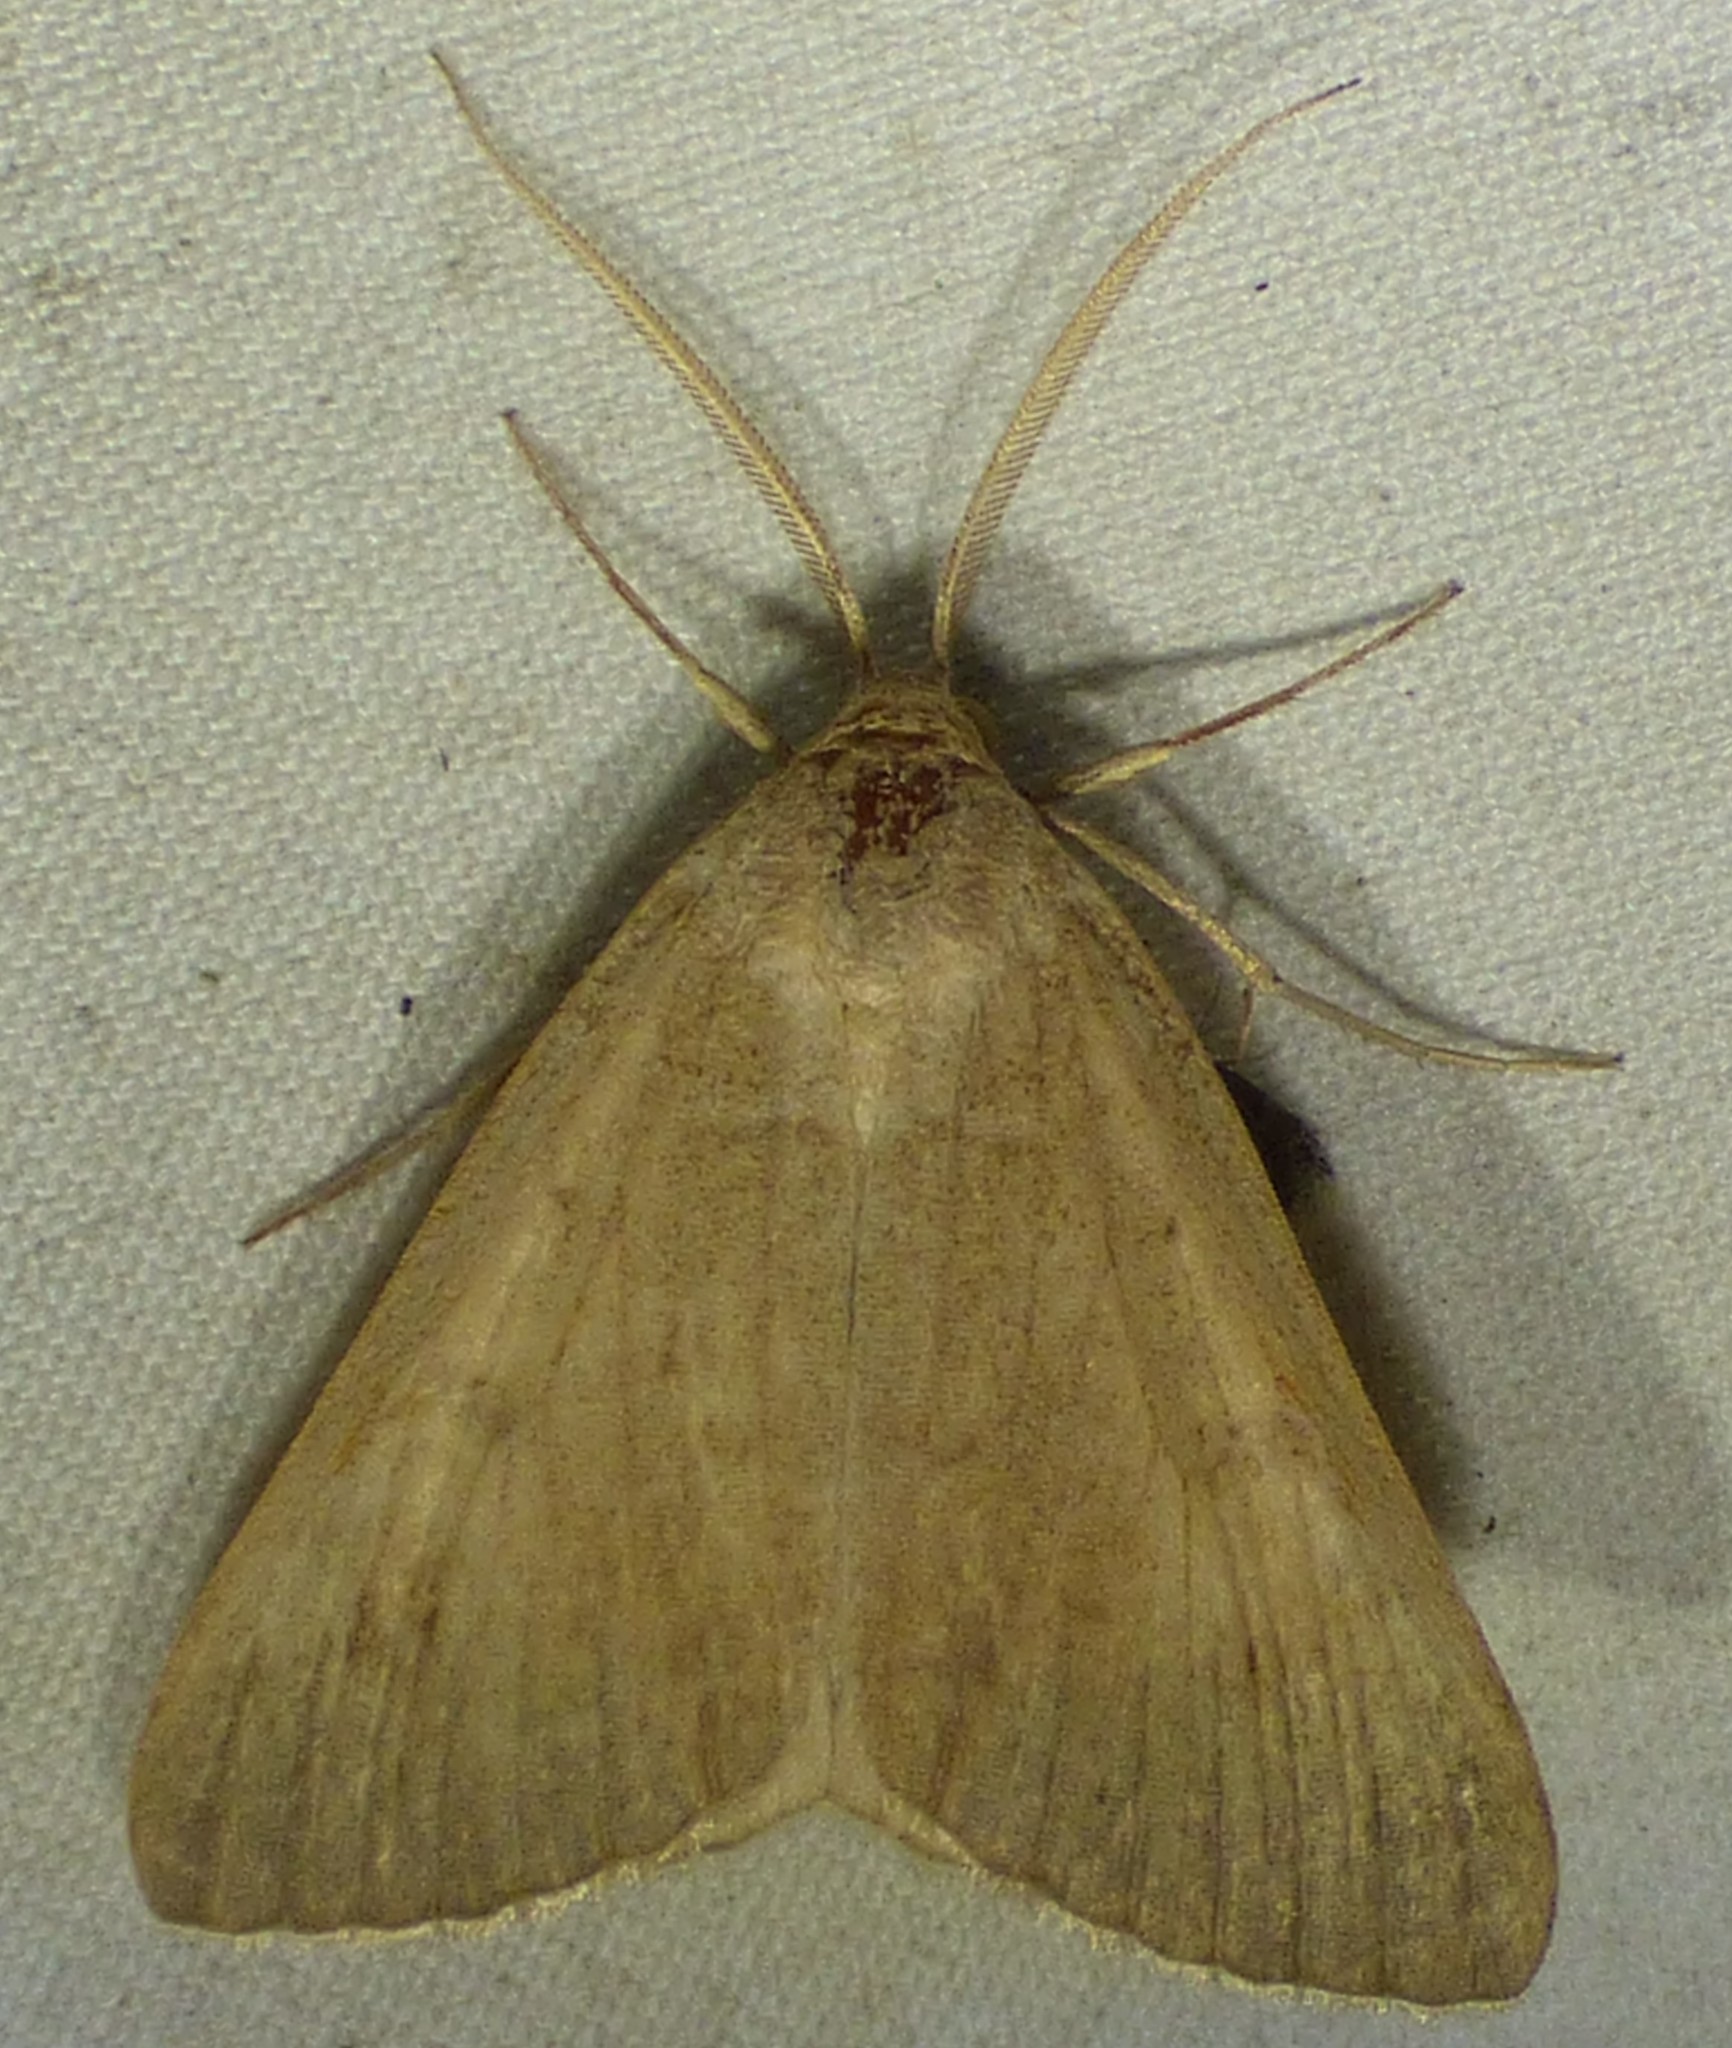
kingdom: Animalia
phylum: Arthropoda
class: Insecta
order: Lepidoptera
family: Erebidae
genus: Caenurgia
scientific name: Caenurgia chloropha
